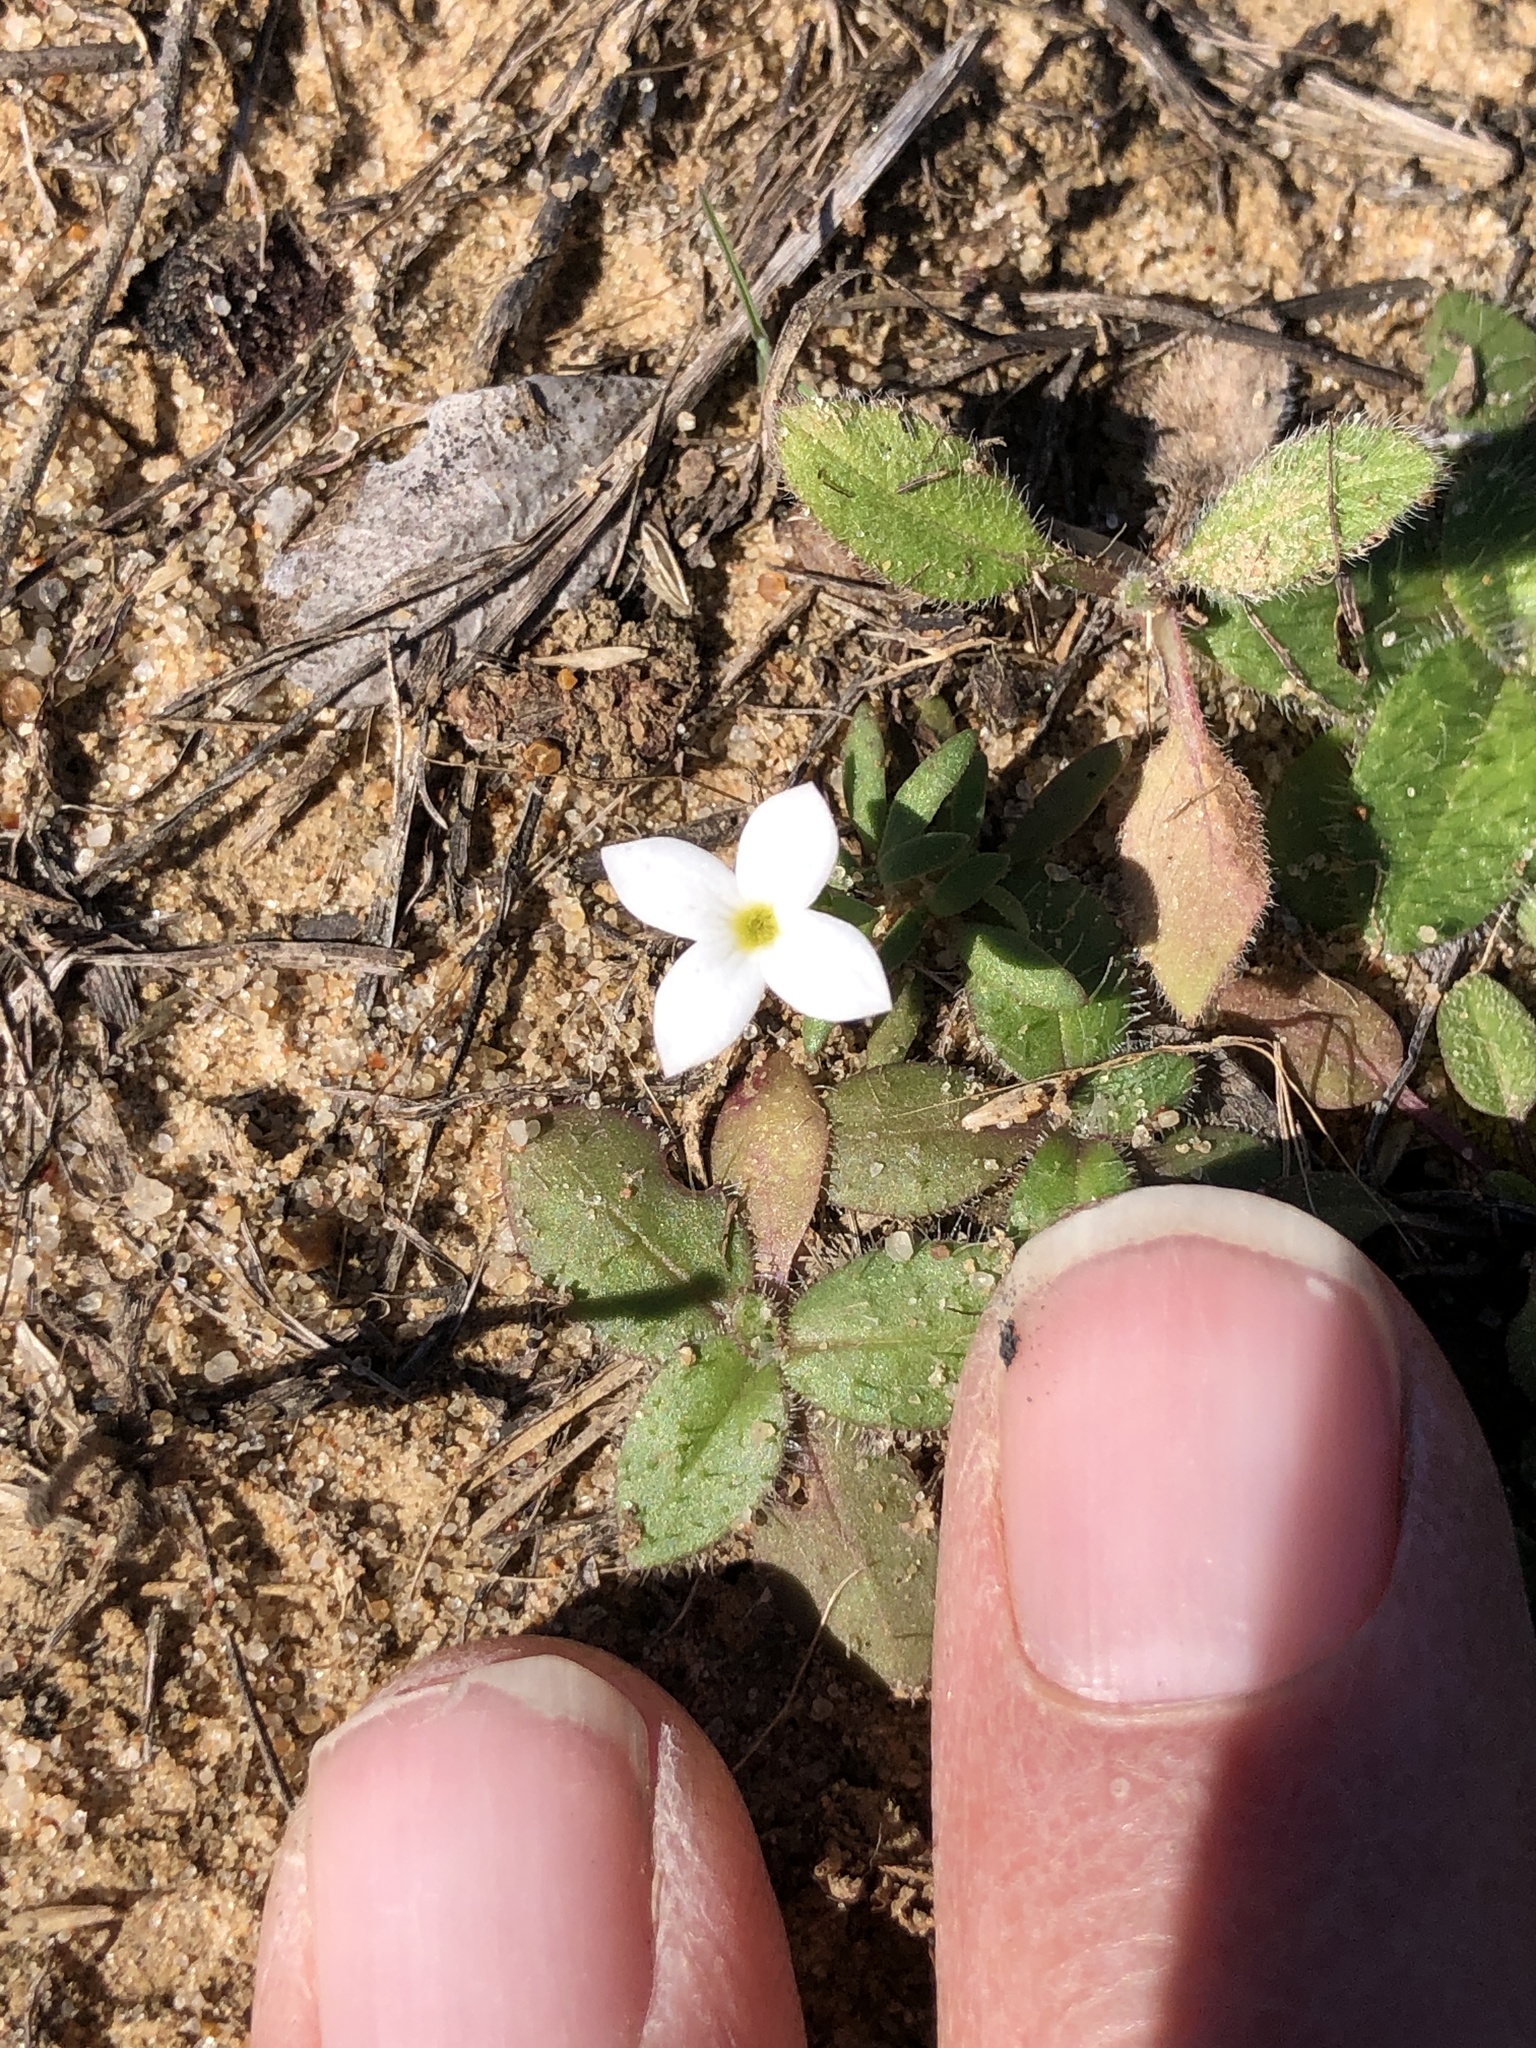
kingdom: Plantae
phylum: Tracheophyta
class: Magnoliopsida
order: Gentianales
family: Rubiaceae
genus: Houstonia
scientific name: Houstonia rosea
